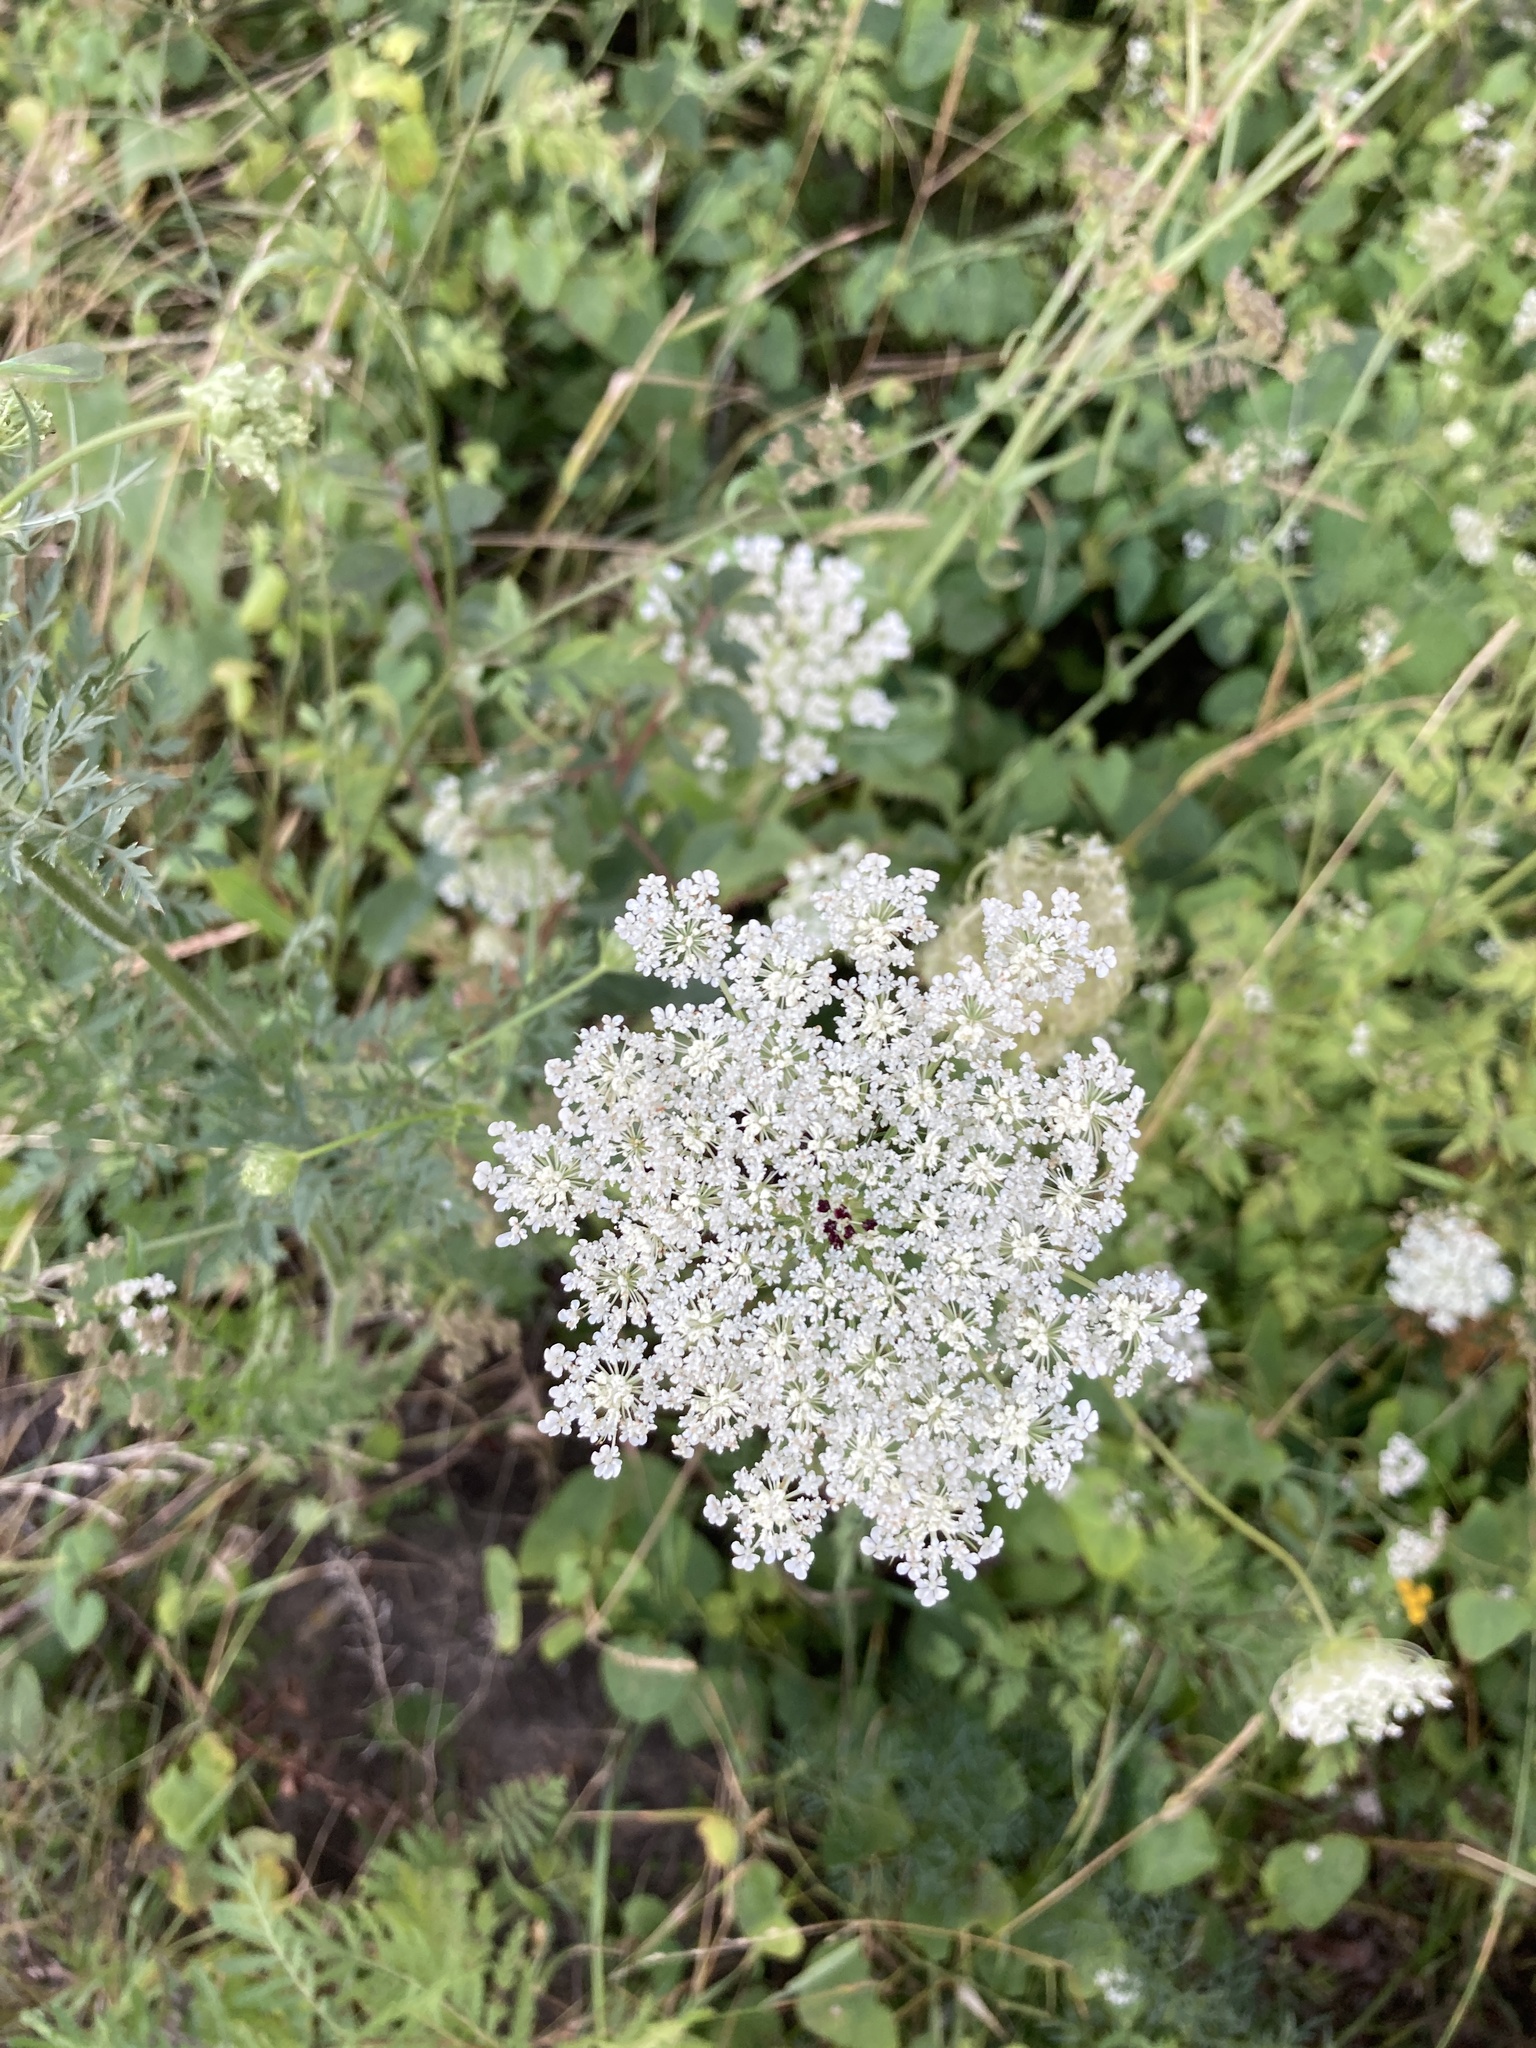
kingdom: Plantae
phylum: Tracheophyta
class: Magnoliopsida
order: Apiales
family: Apiaceae
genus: Daucus
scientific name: Daucus carota
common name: Wild carrot
